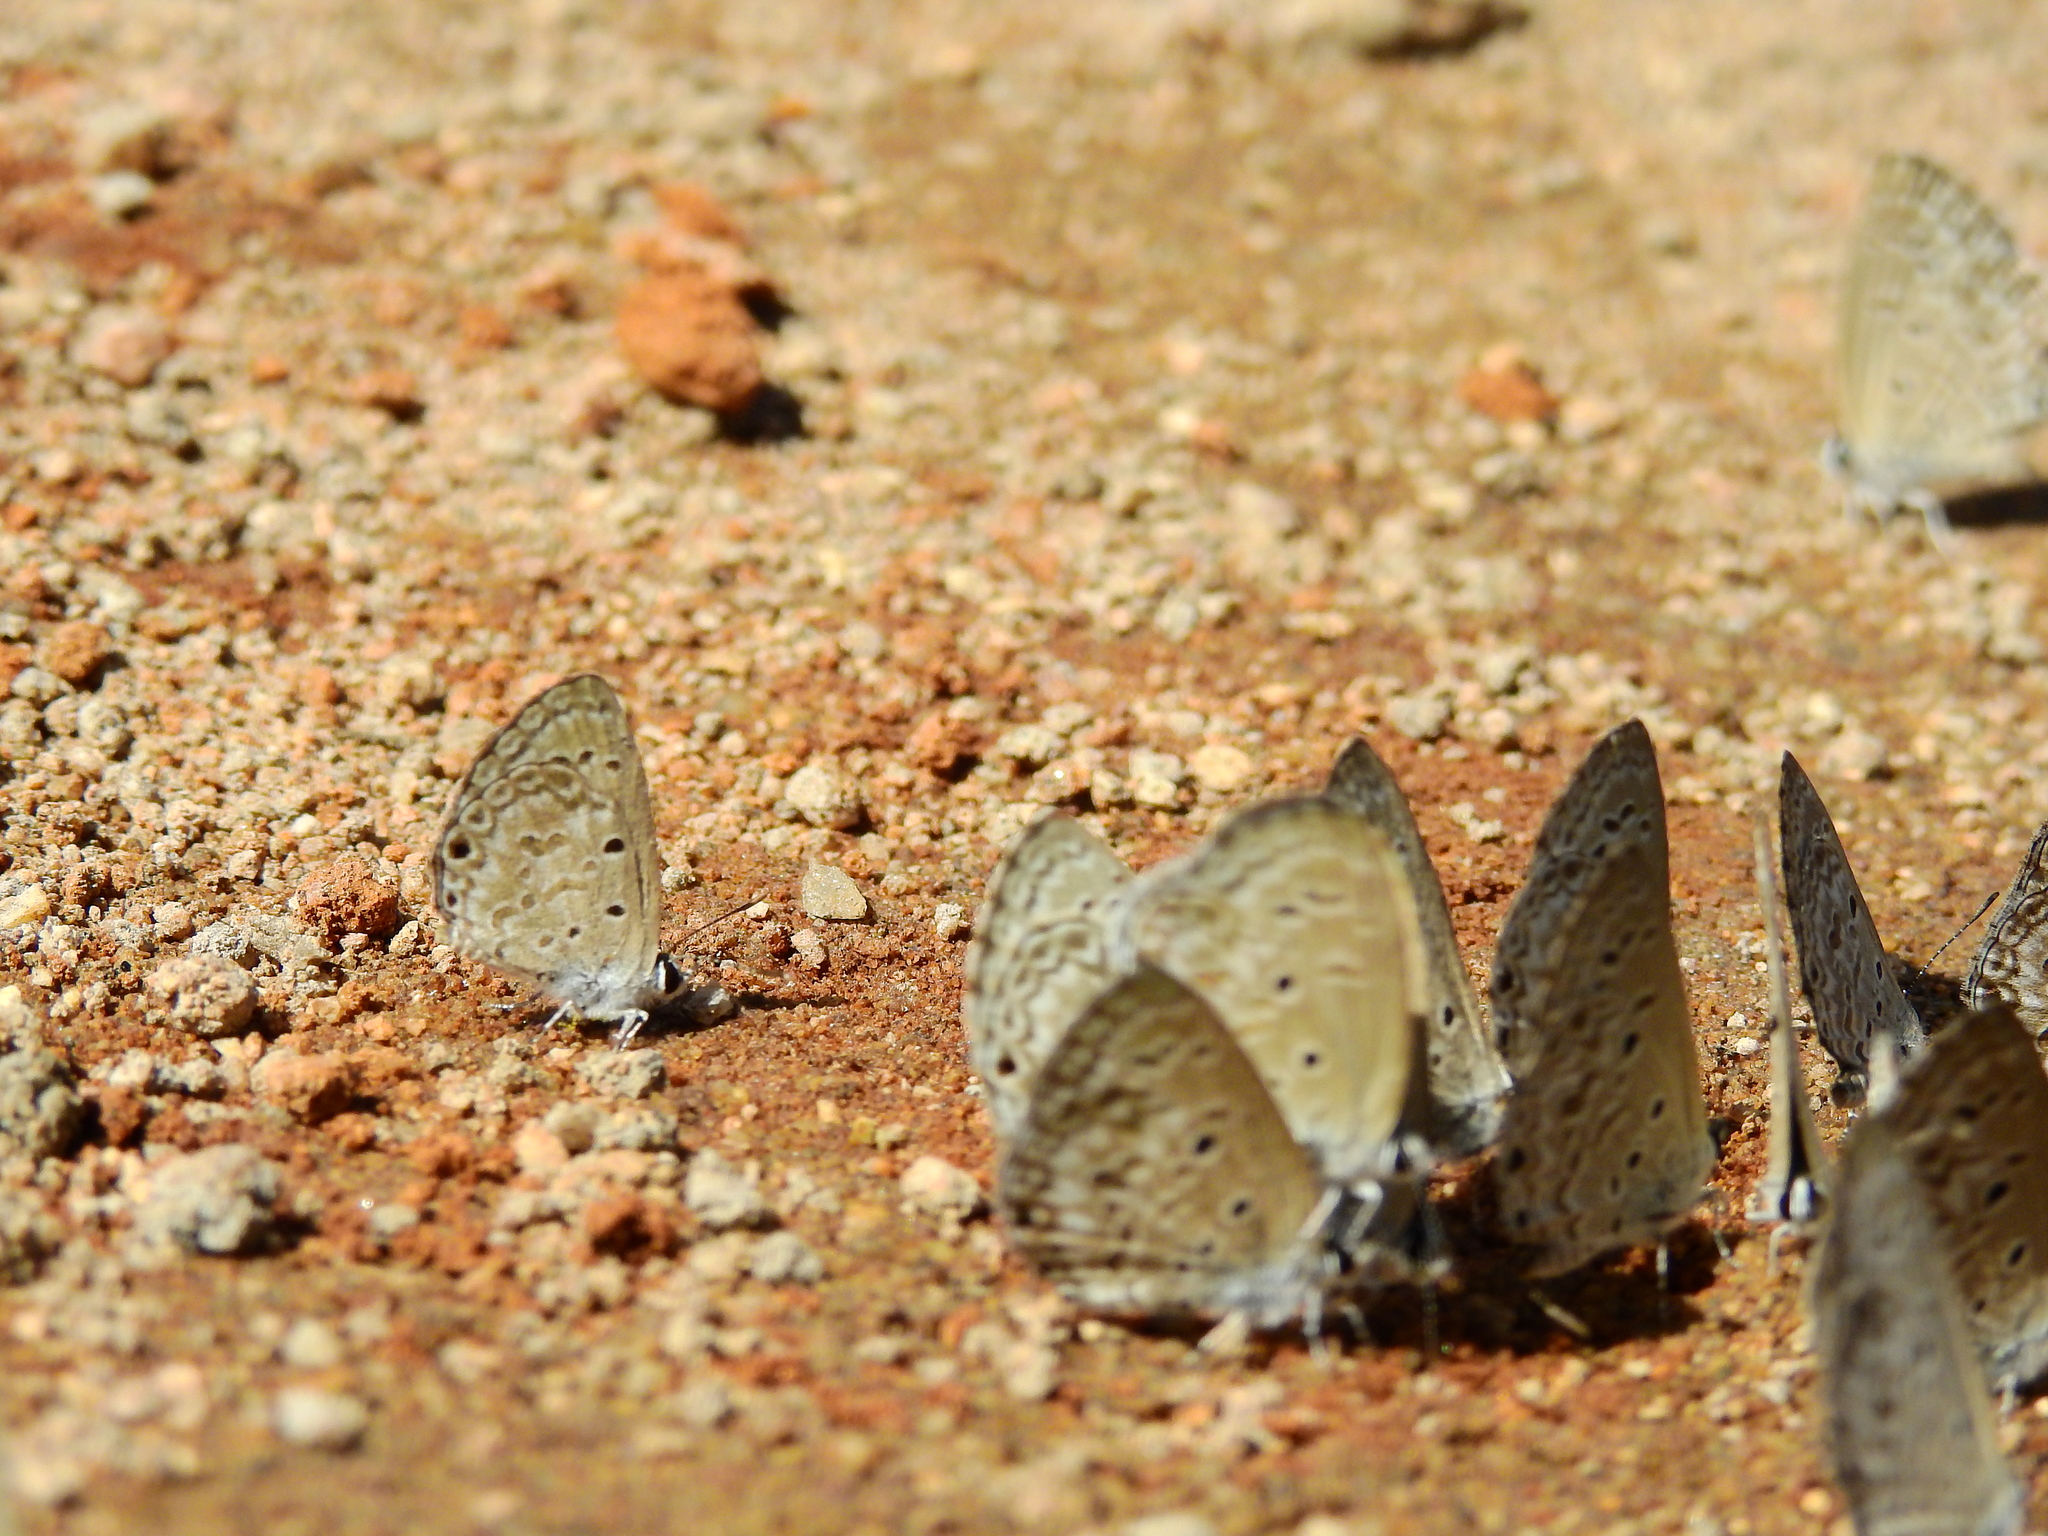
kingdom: Animalia
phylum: Arthropoda
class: Insecta
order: Lepidoptera
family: Lycaenidae
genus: Chilades
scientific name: Chilades laius
